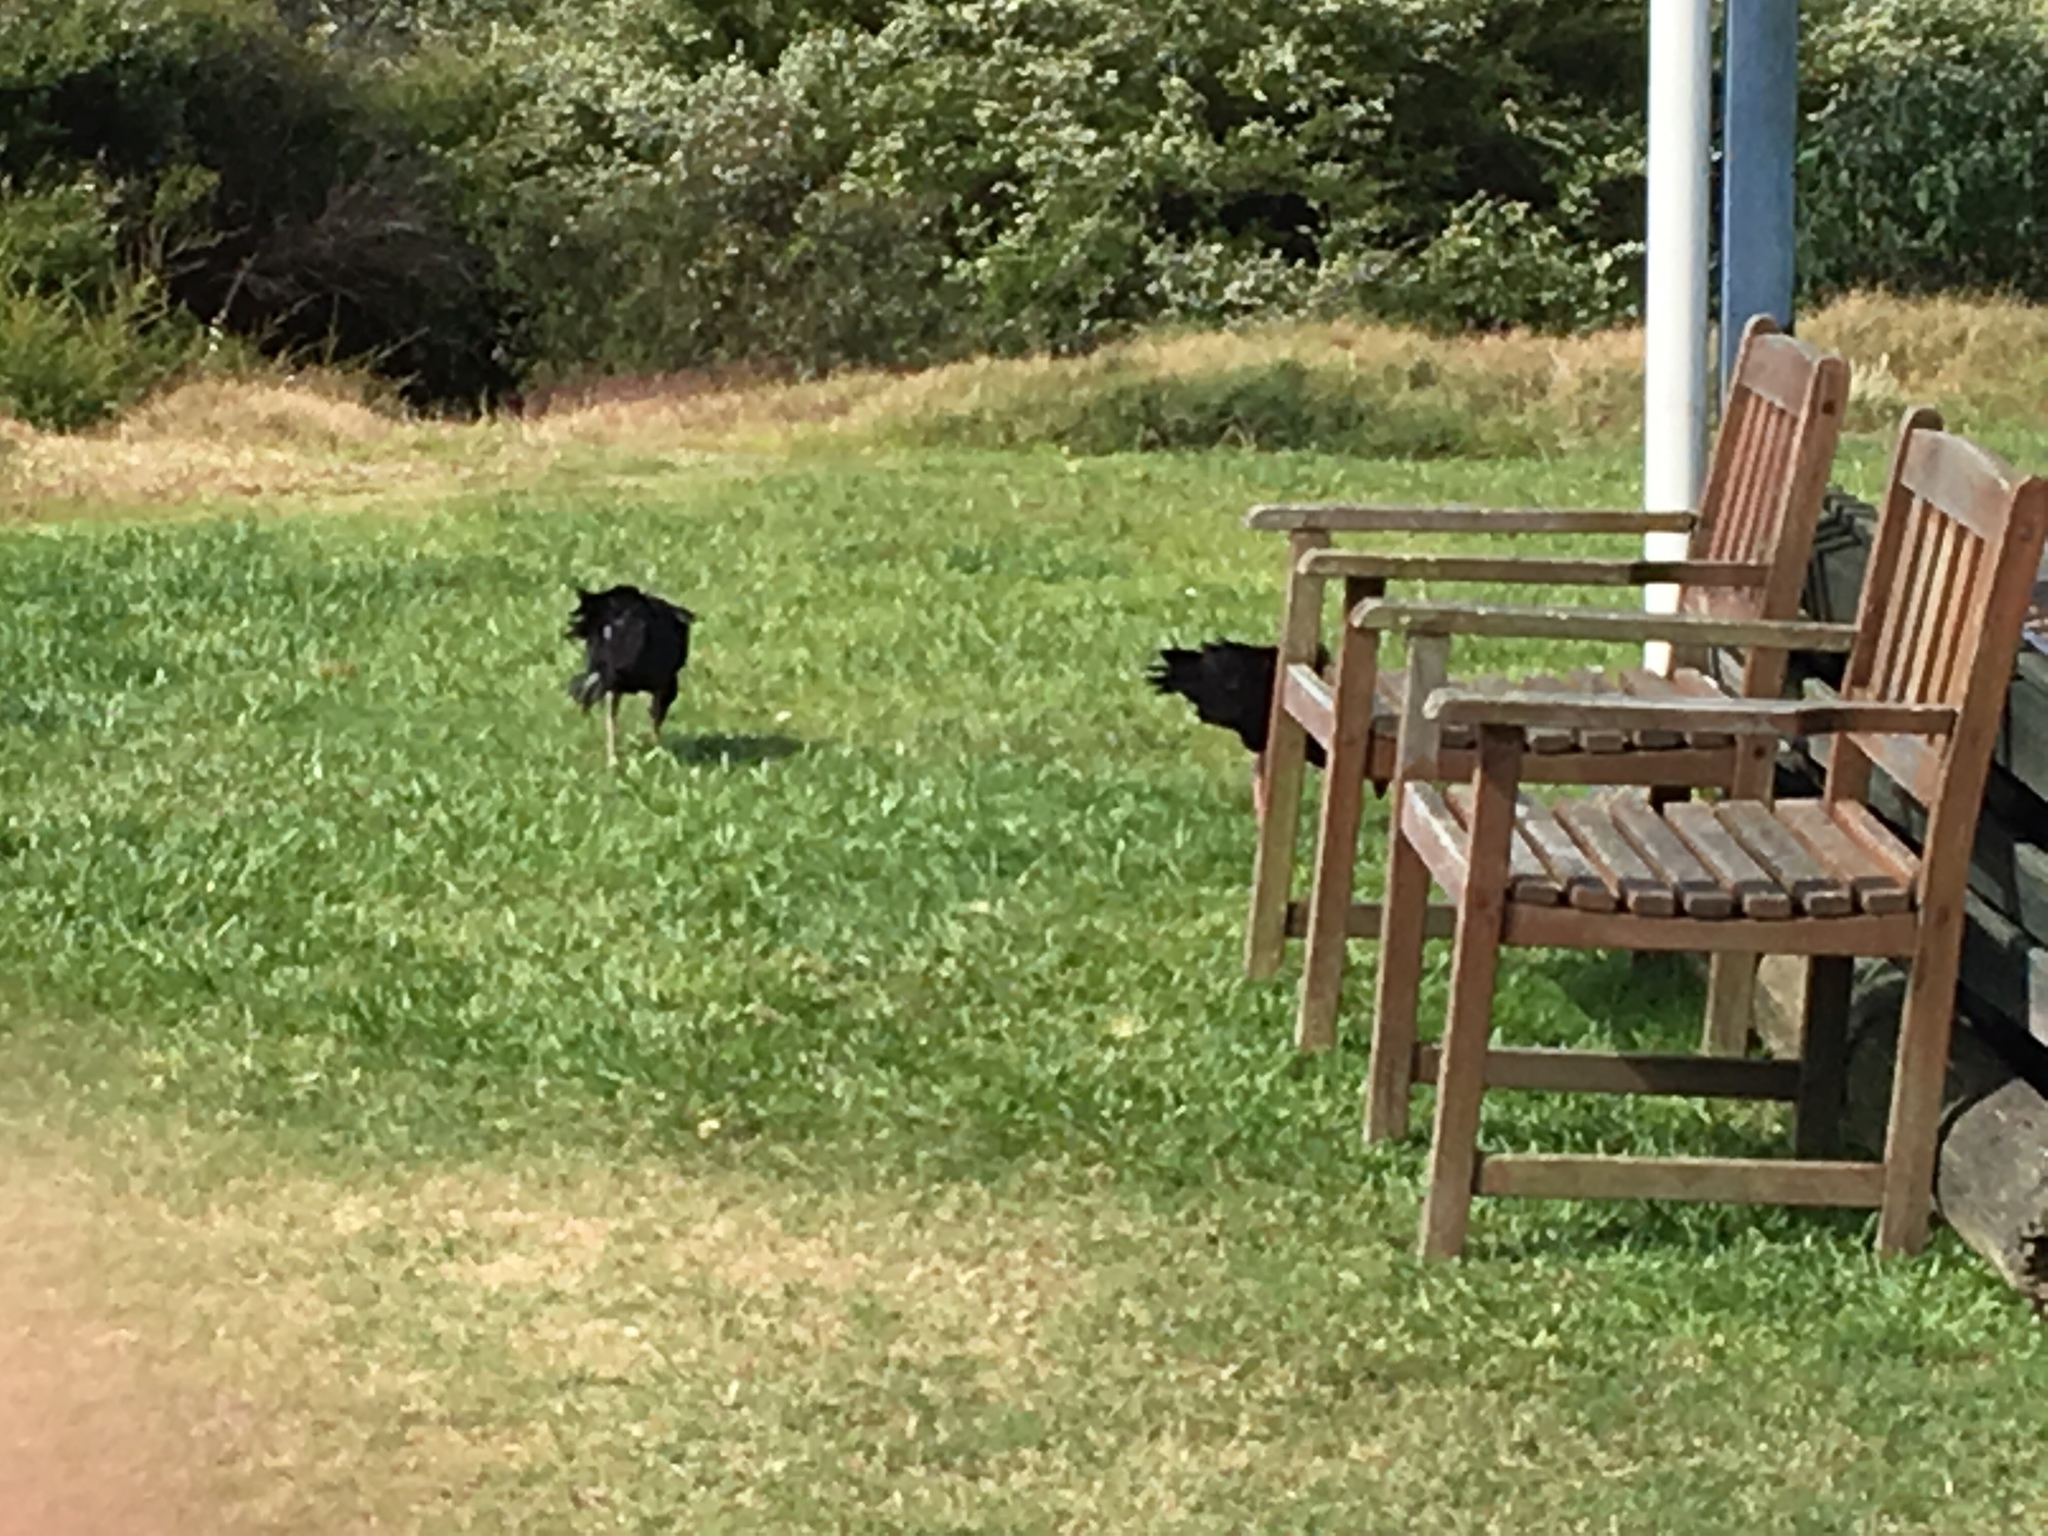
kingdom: Animalia
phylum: Chordata
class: Aves
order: Gruiformes
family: Rallidae
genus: Porphyrio
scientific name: Porphyrio melanotus
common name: Australasian swamphen
